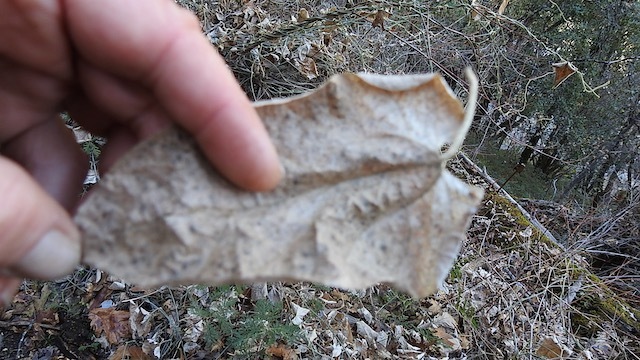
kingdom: Plantae
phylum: Tracheophyta
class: Magnoliopsida
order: Piperales
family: Aristolochiaceae
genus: Isotrema
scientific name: Isotrema californicum
